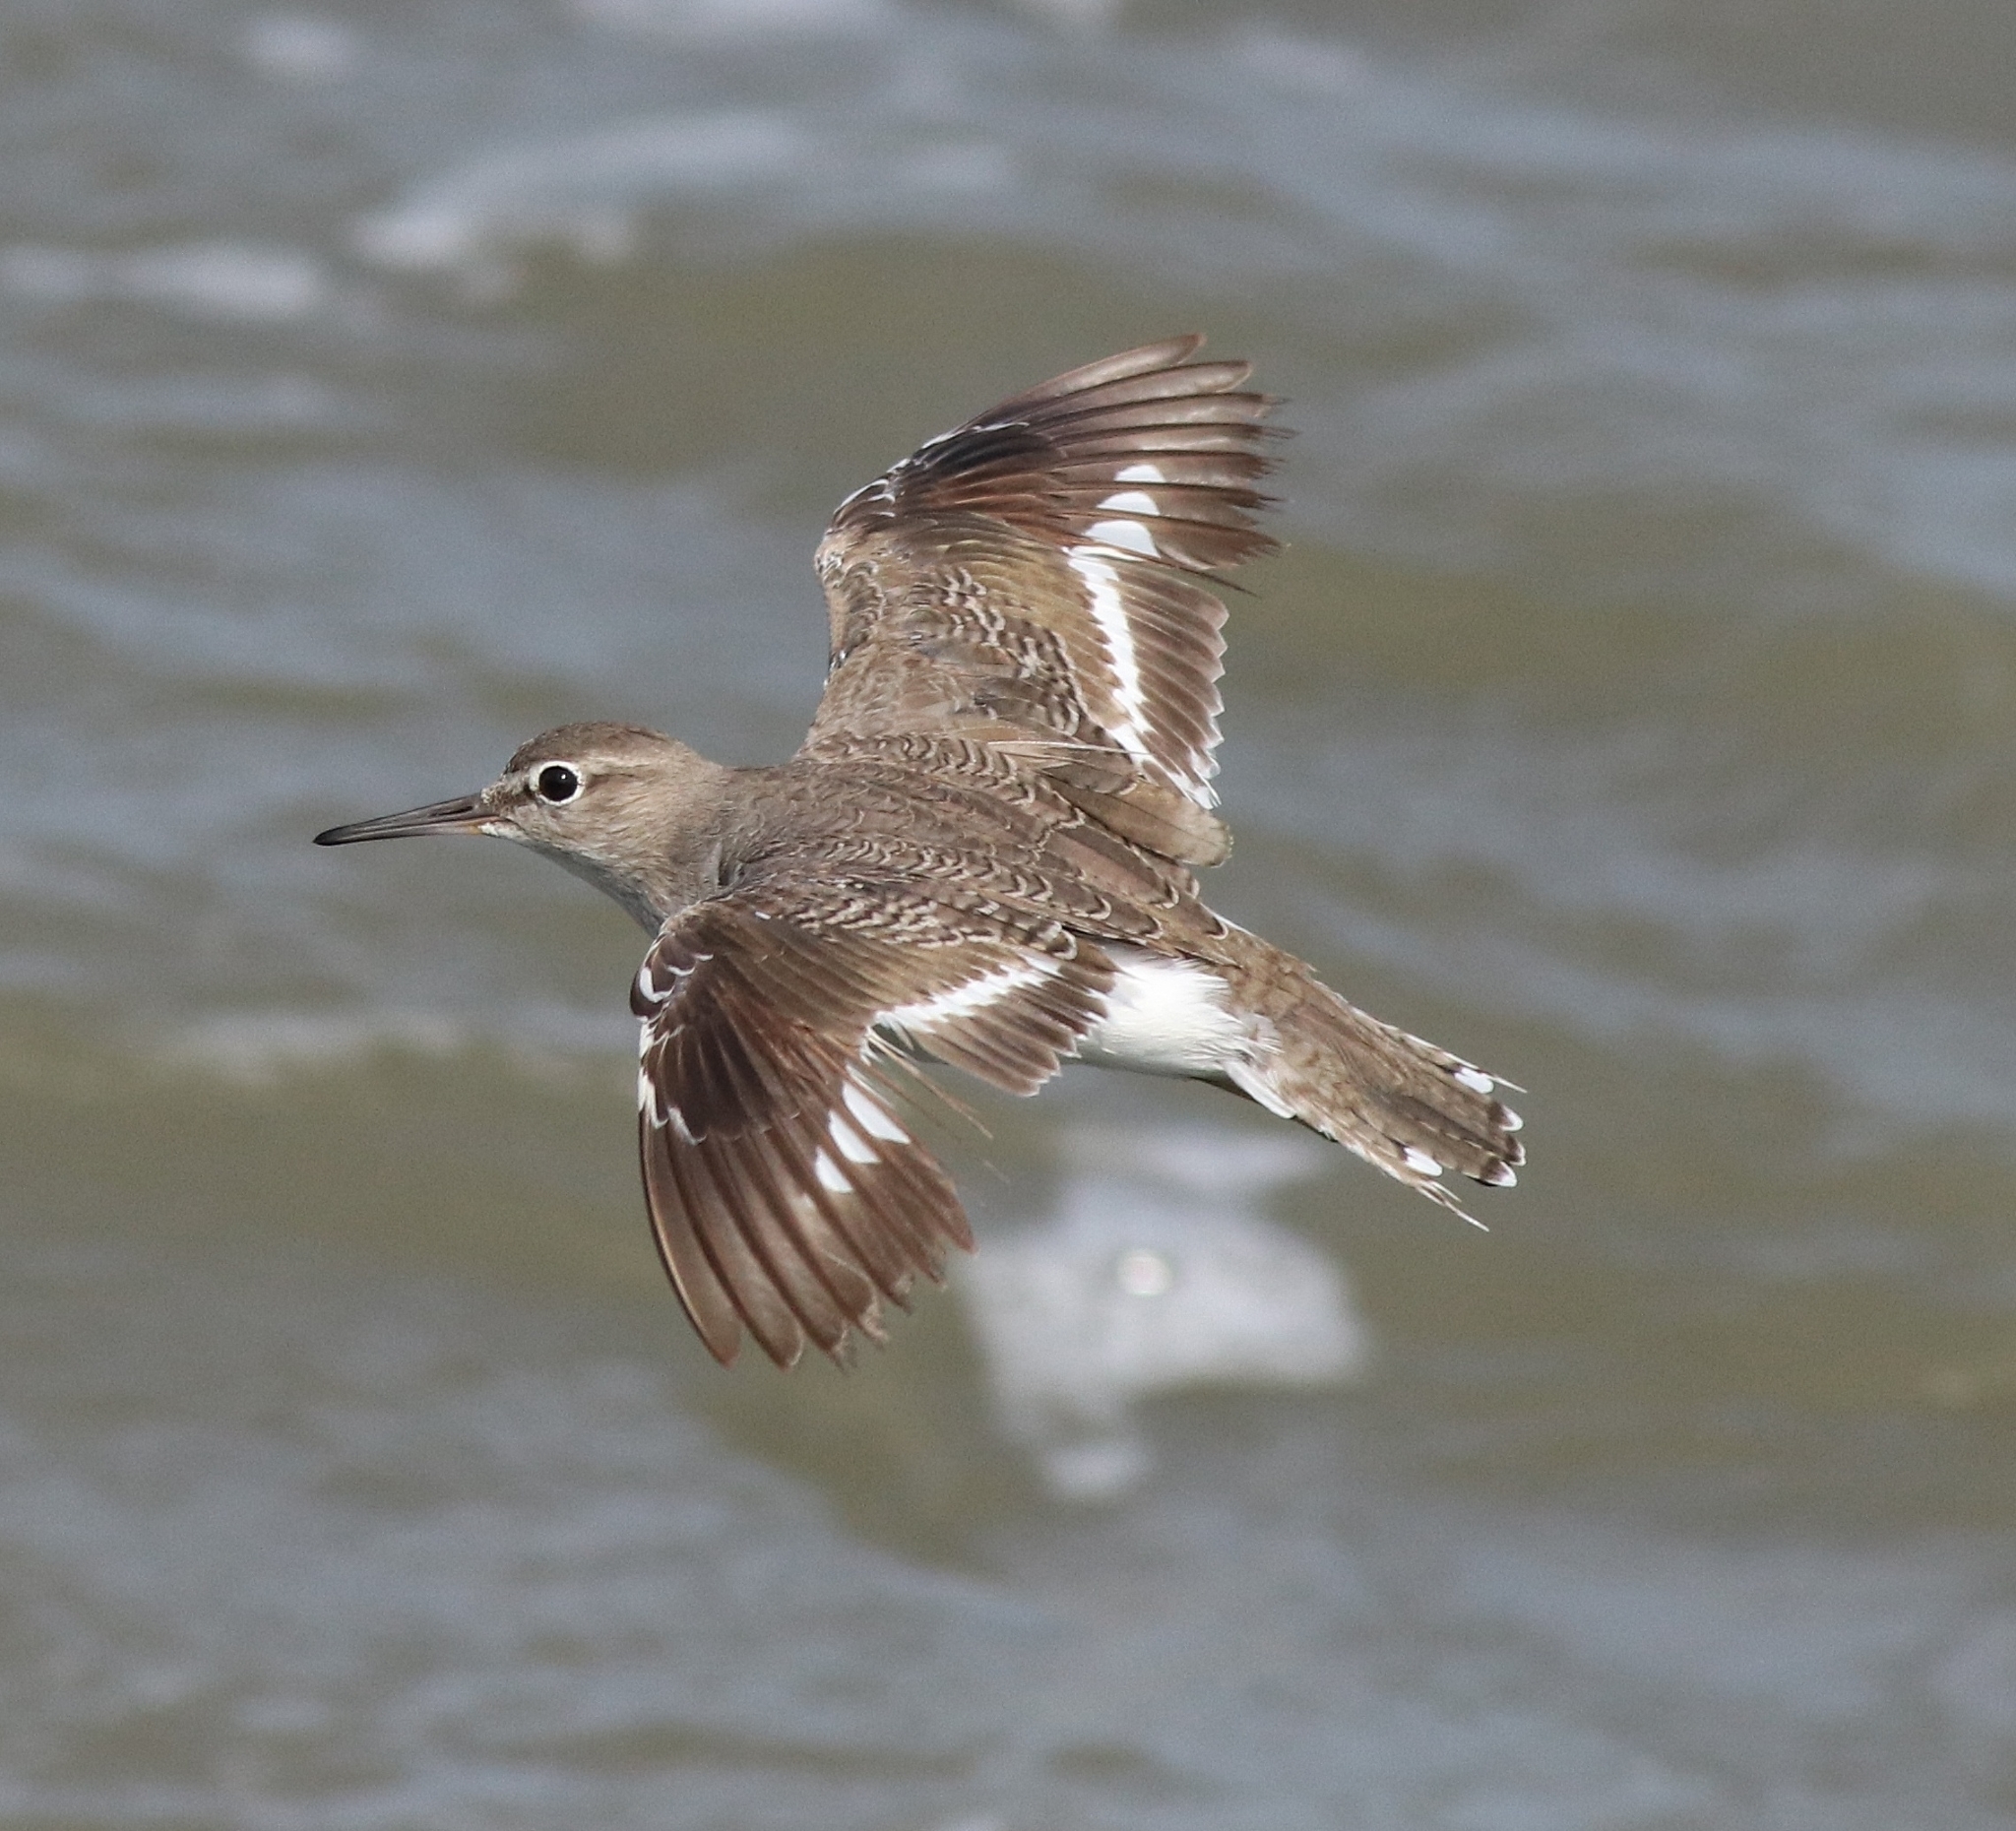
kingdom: Animalia
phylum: Chordata
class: Aves
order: Charadriiformes
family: Scolopacidae
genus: Actitis
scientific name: Actitis hypoleucos
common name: Common sandpiper
